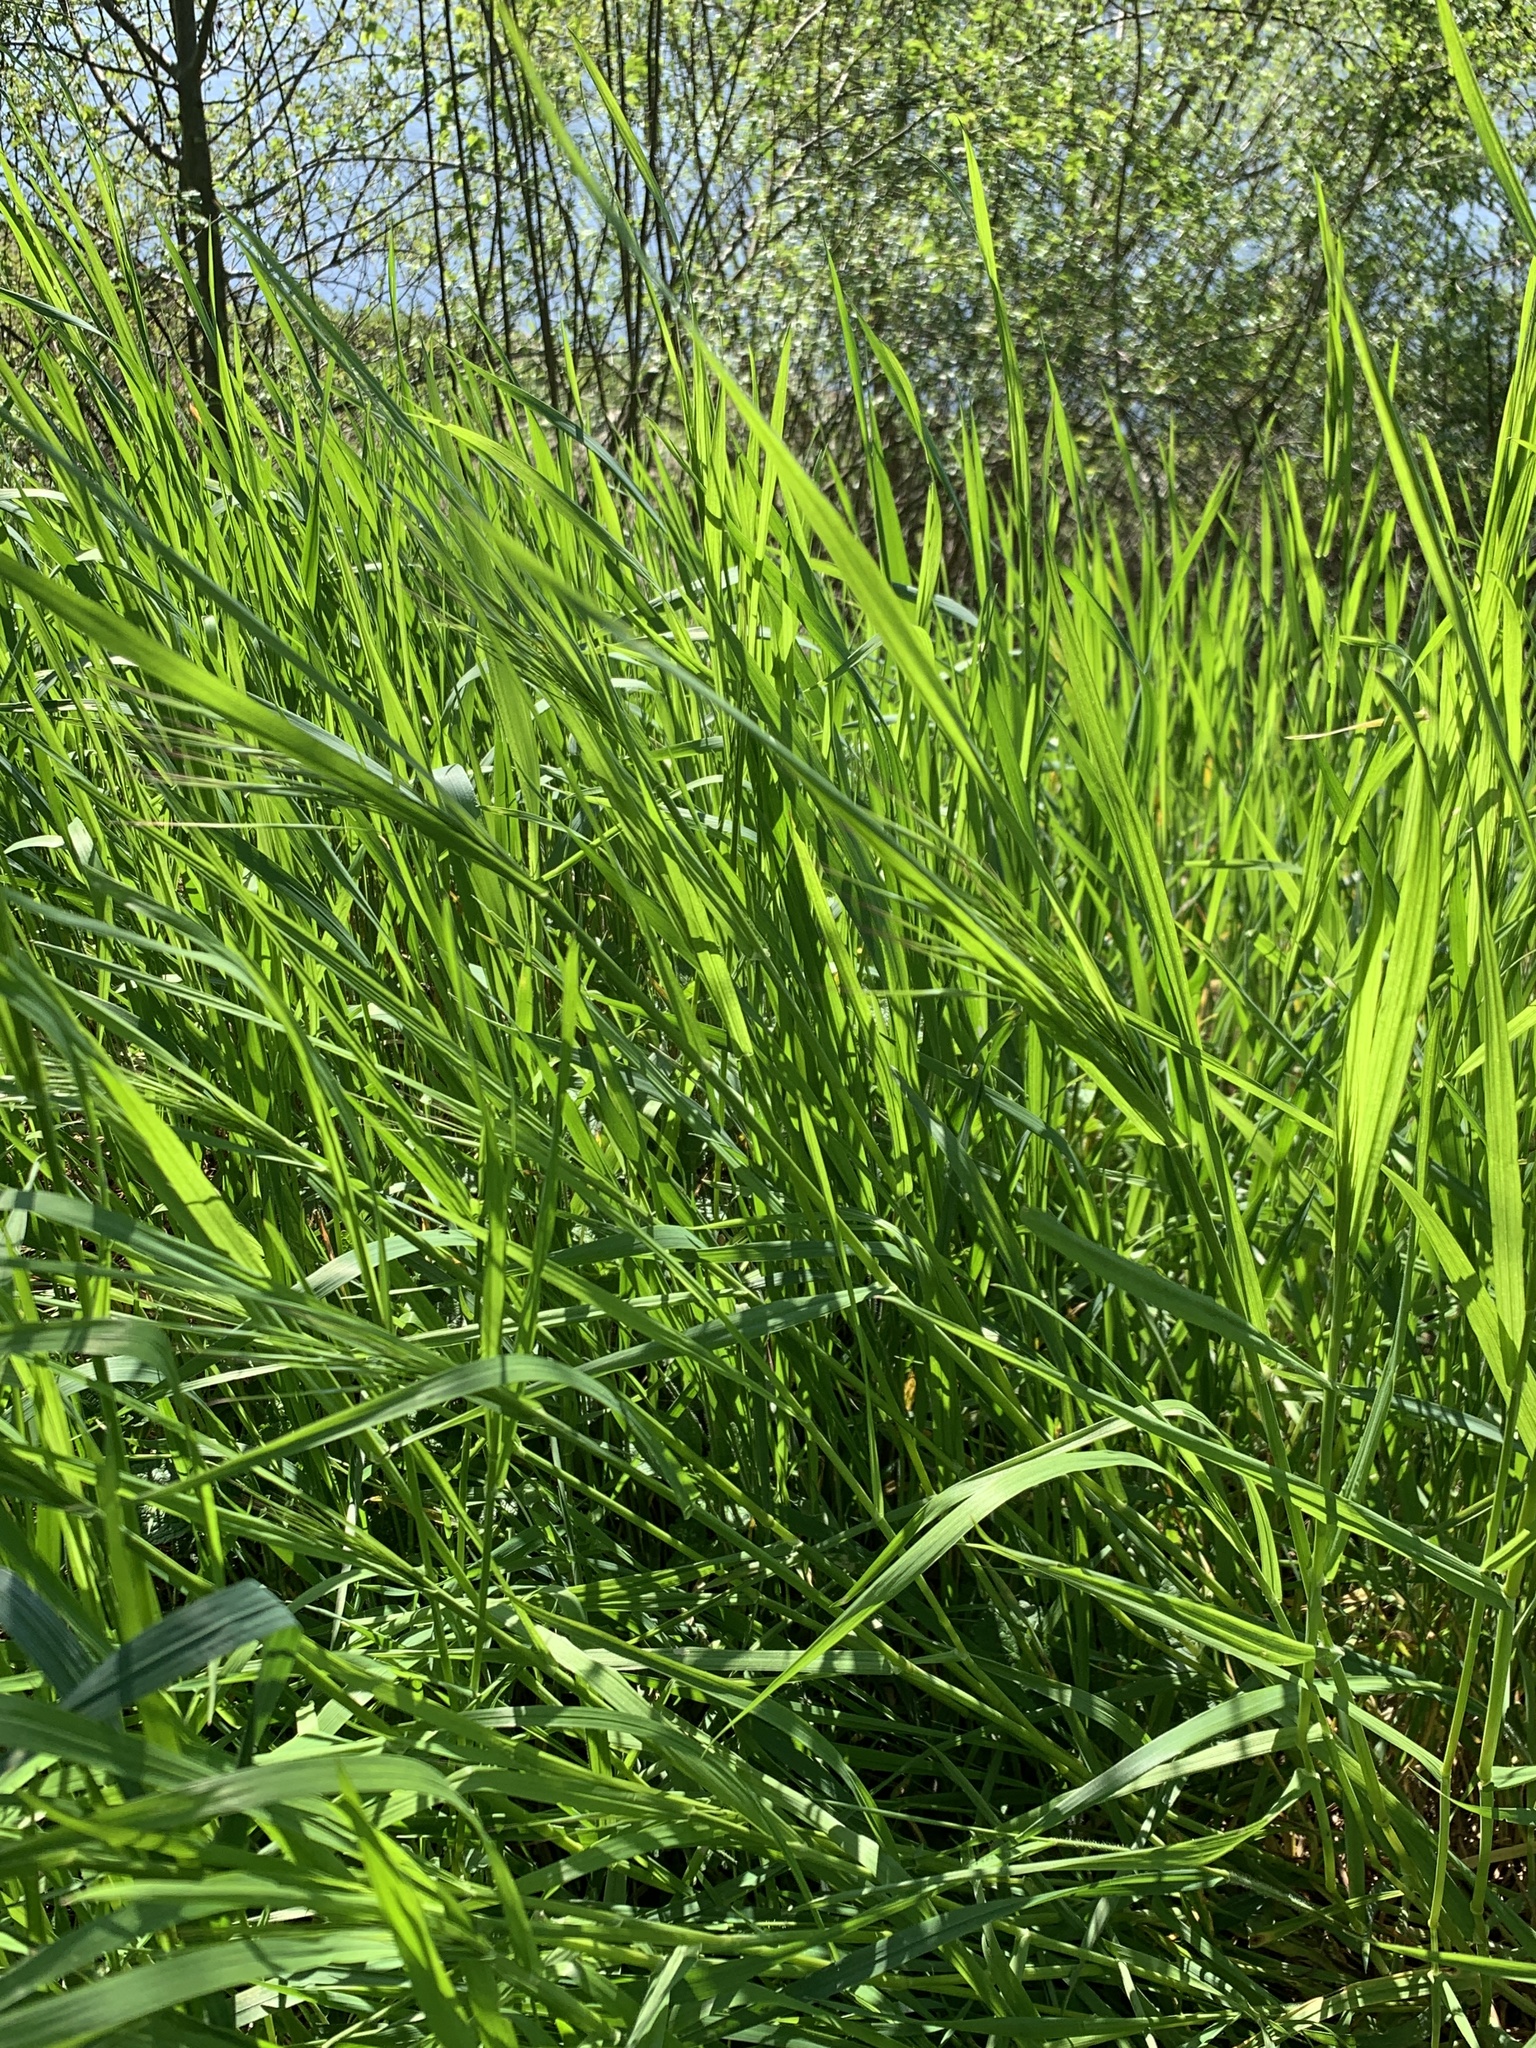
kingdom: Plantae
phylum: Tracheophyta
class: Liliopsida
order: Poales
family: Poaceae
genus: Bromus
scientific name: Bromus sterilis
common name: Poverty brome
